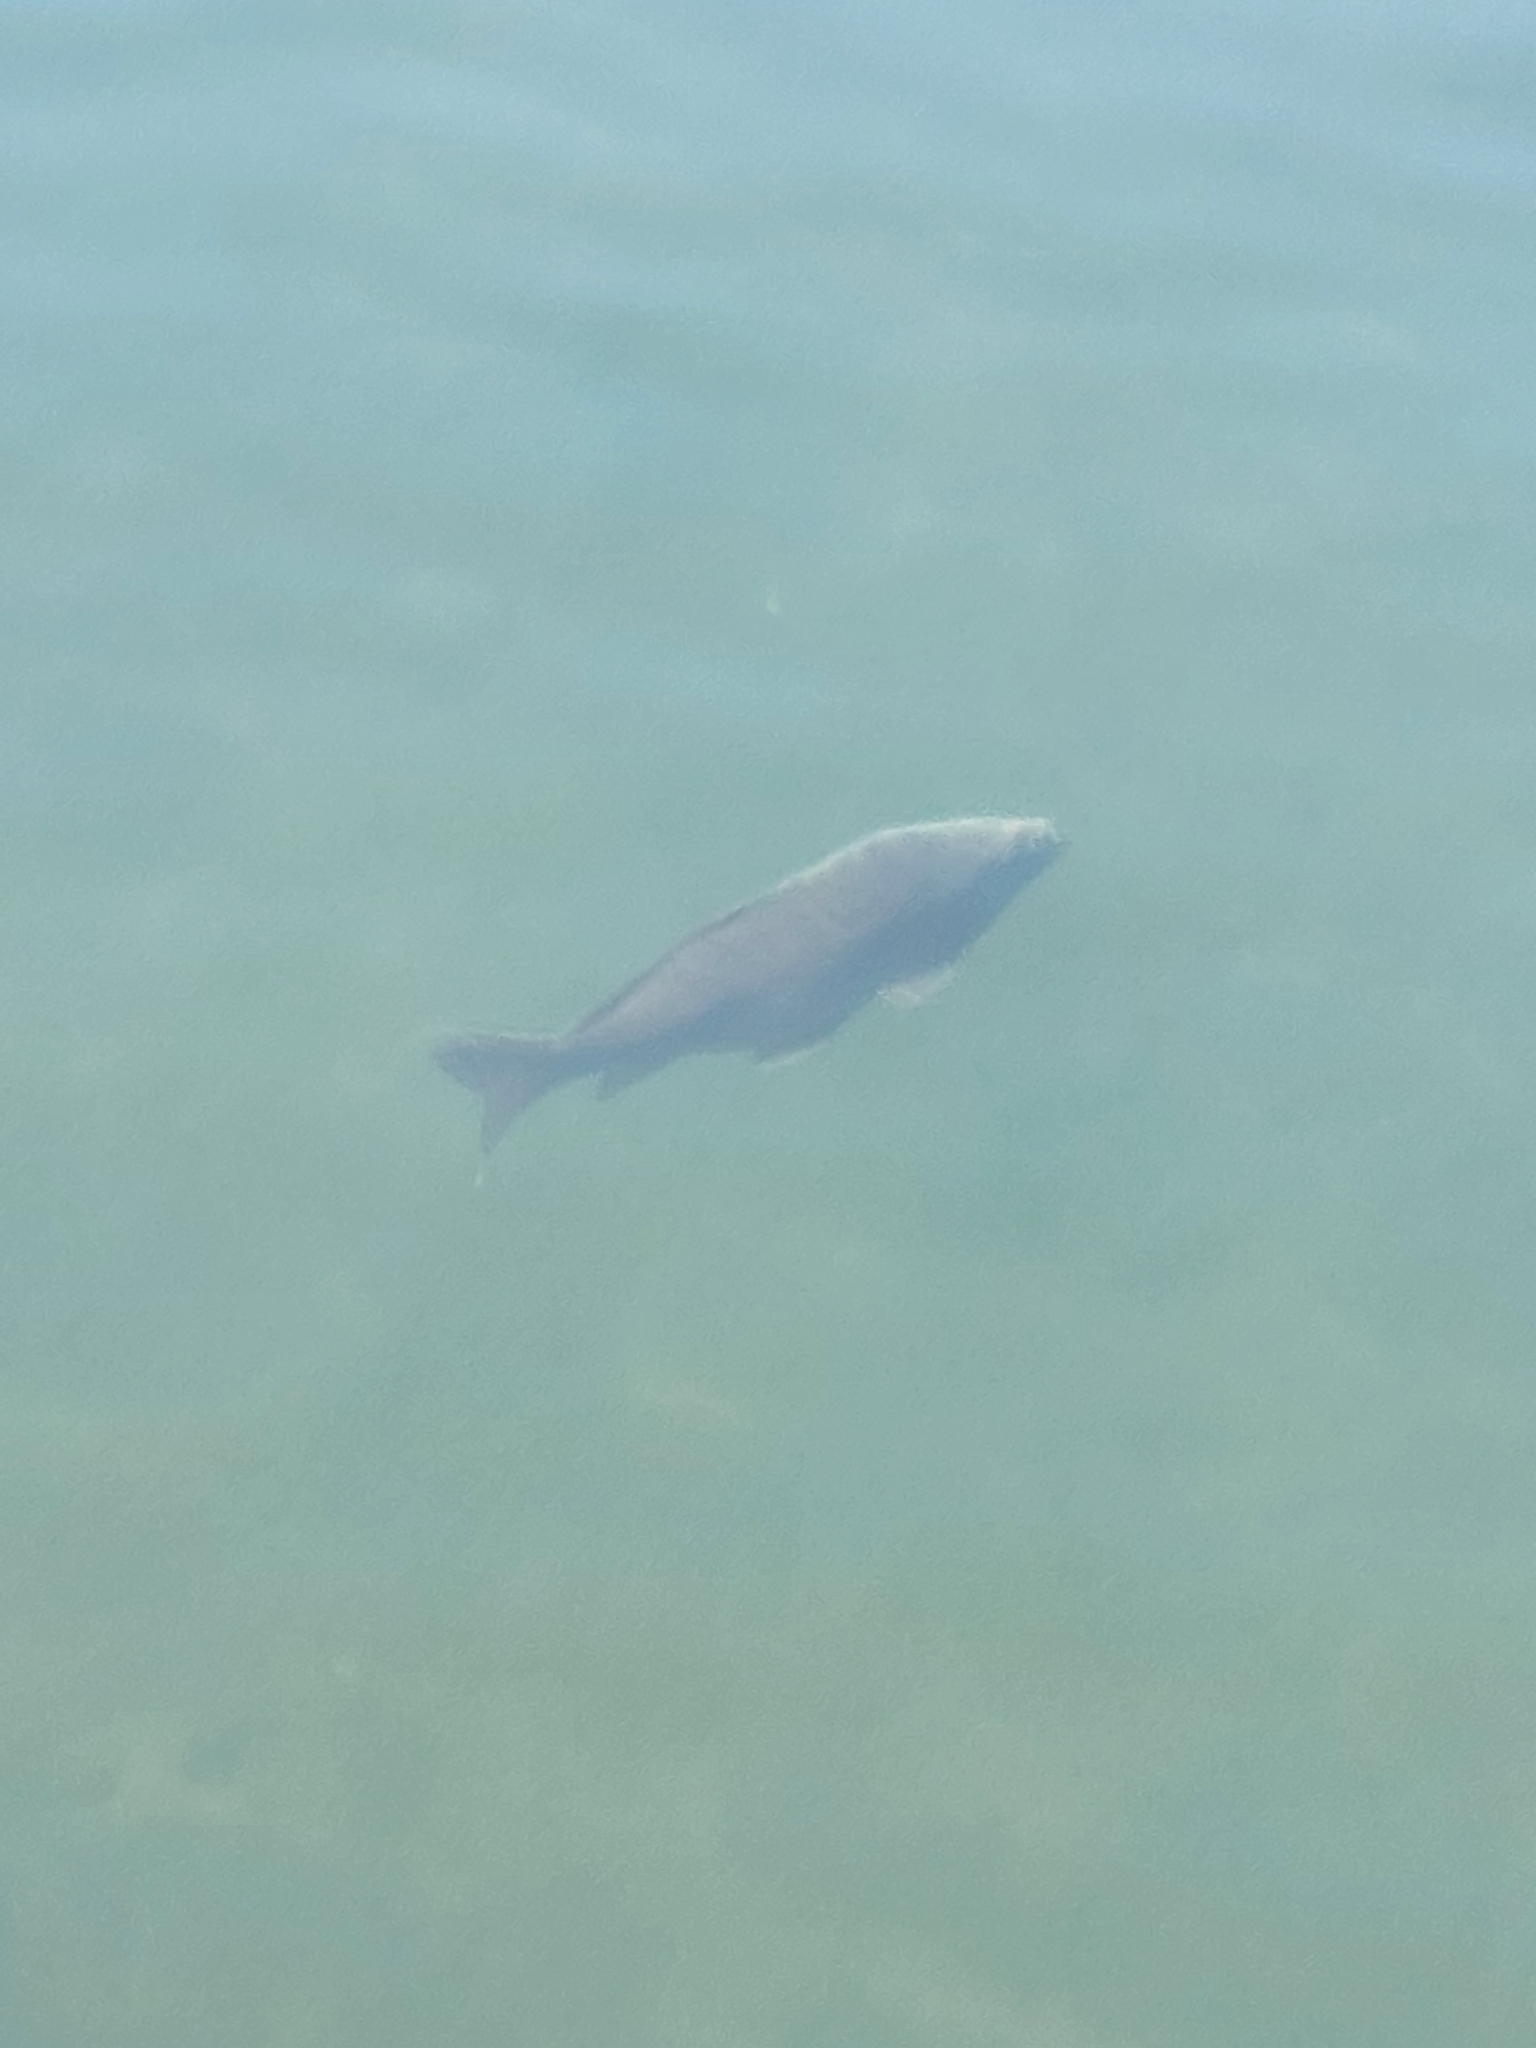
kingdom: Animalia
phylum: Chordata
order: Cypriniformes
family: Cyprinidae
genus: Cyprinus
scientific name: Cyprinus carpio
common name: Common carp
